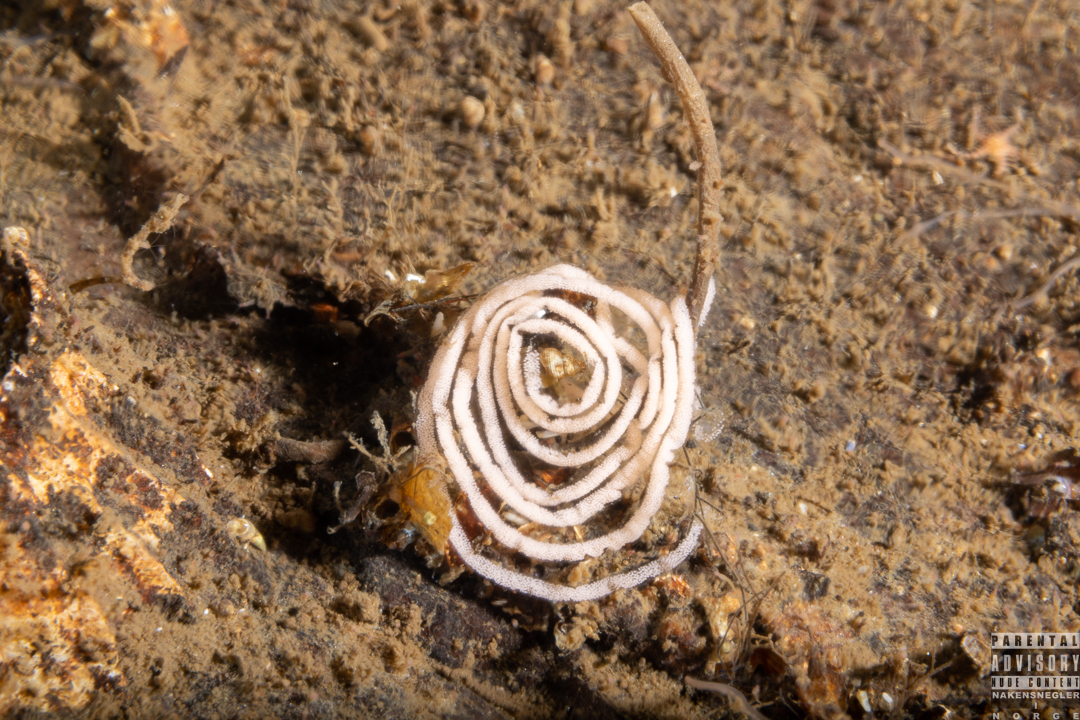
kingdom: Animalia
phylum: Mollusca
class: Gastropoda
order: Nudibranchia
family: Heroidae
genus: Hero
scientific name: Hero formosa
